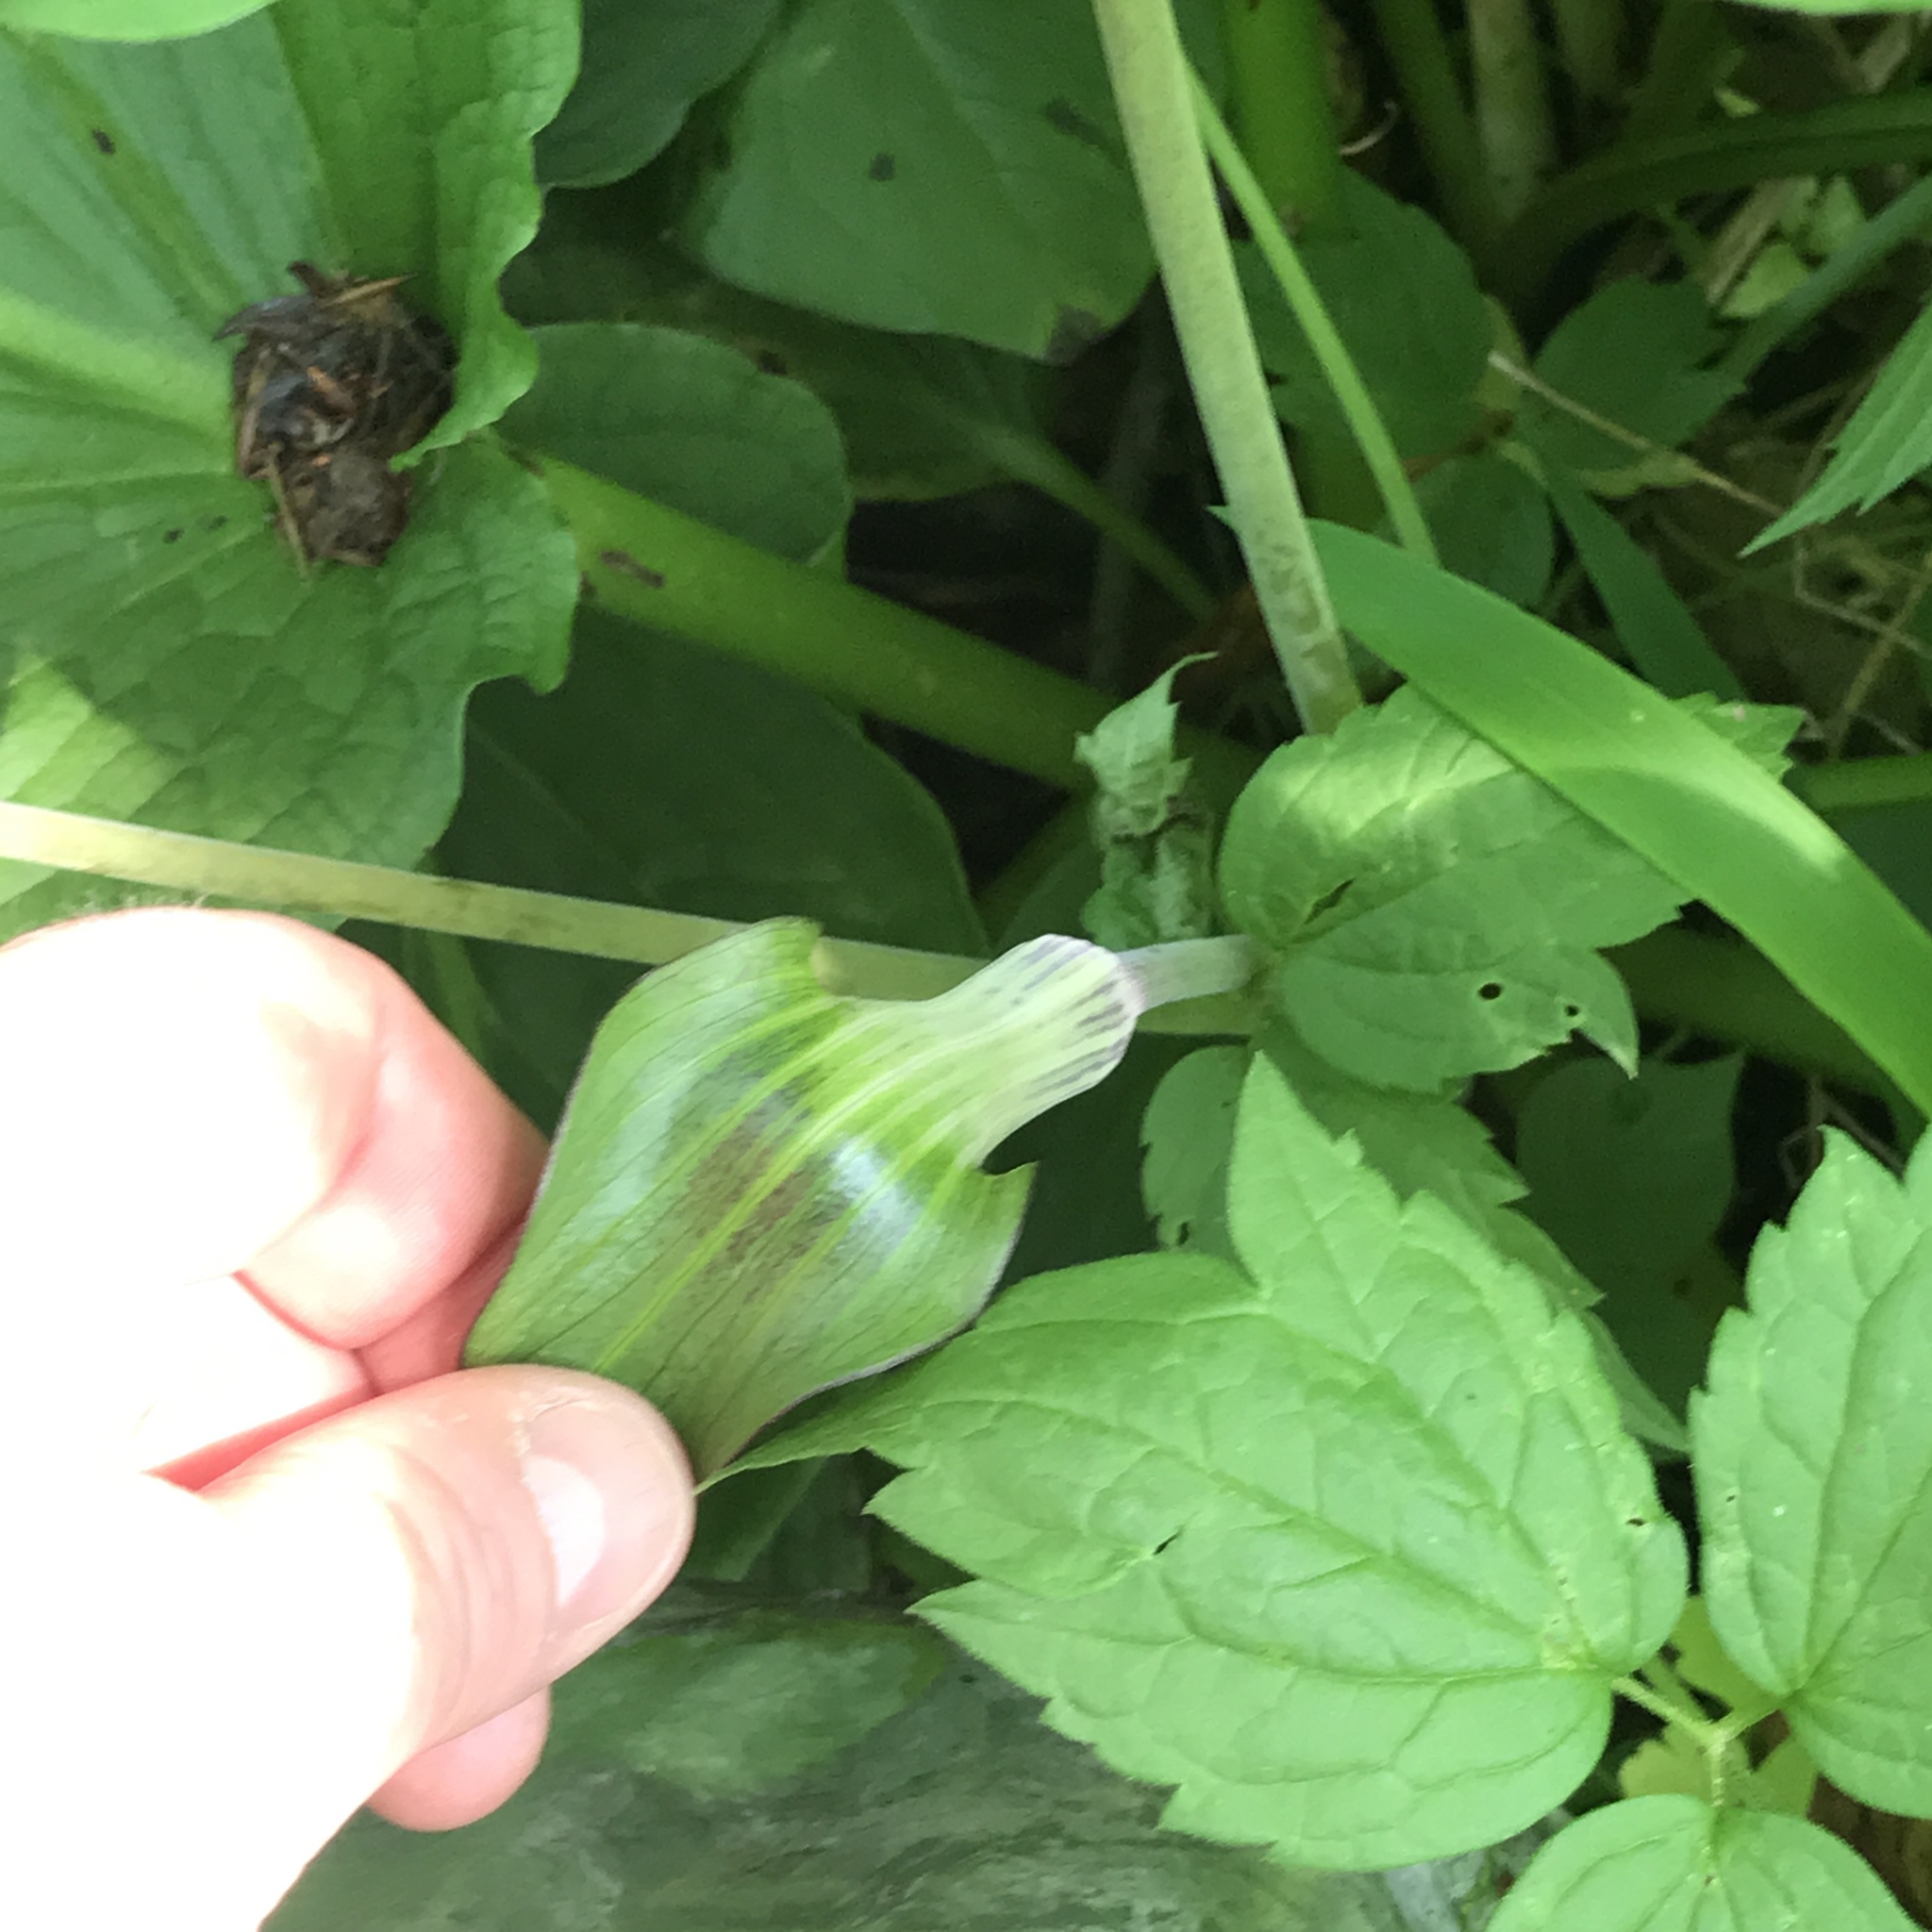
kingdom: Plantae
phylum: Tracheophyta
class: Liliopsida
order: Alismatales
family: Araceae
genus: Arisaema
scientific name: Arisaema triphyllum
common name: Jack-in-the-pulpit
